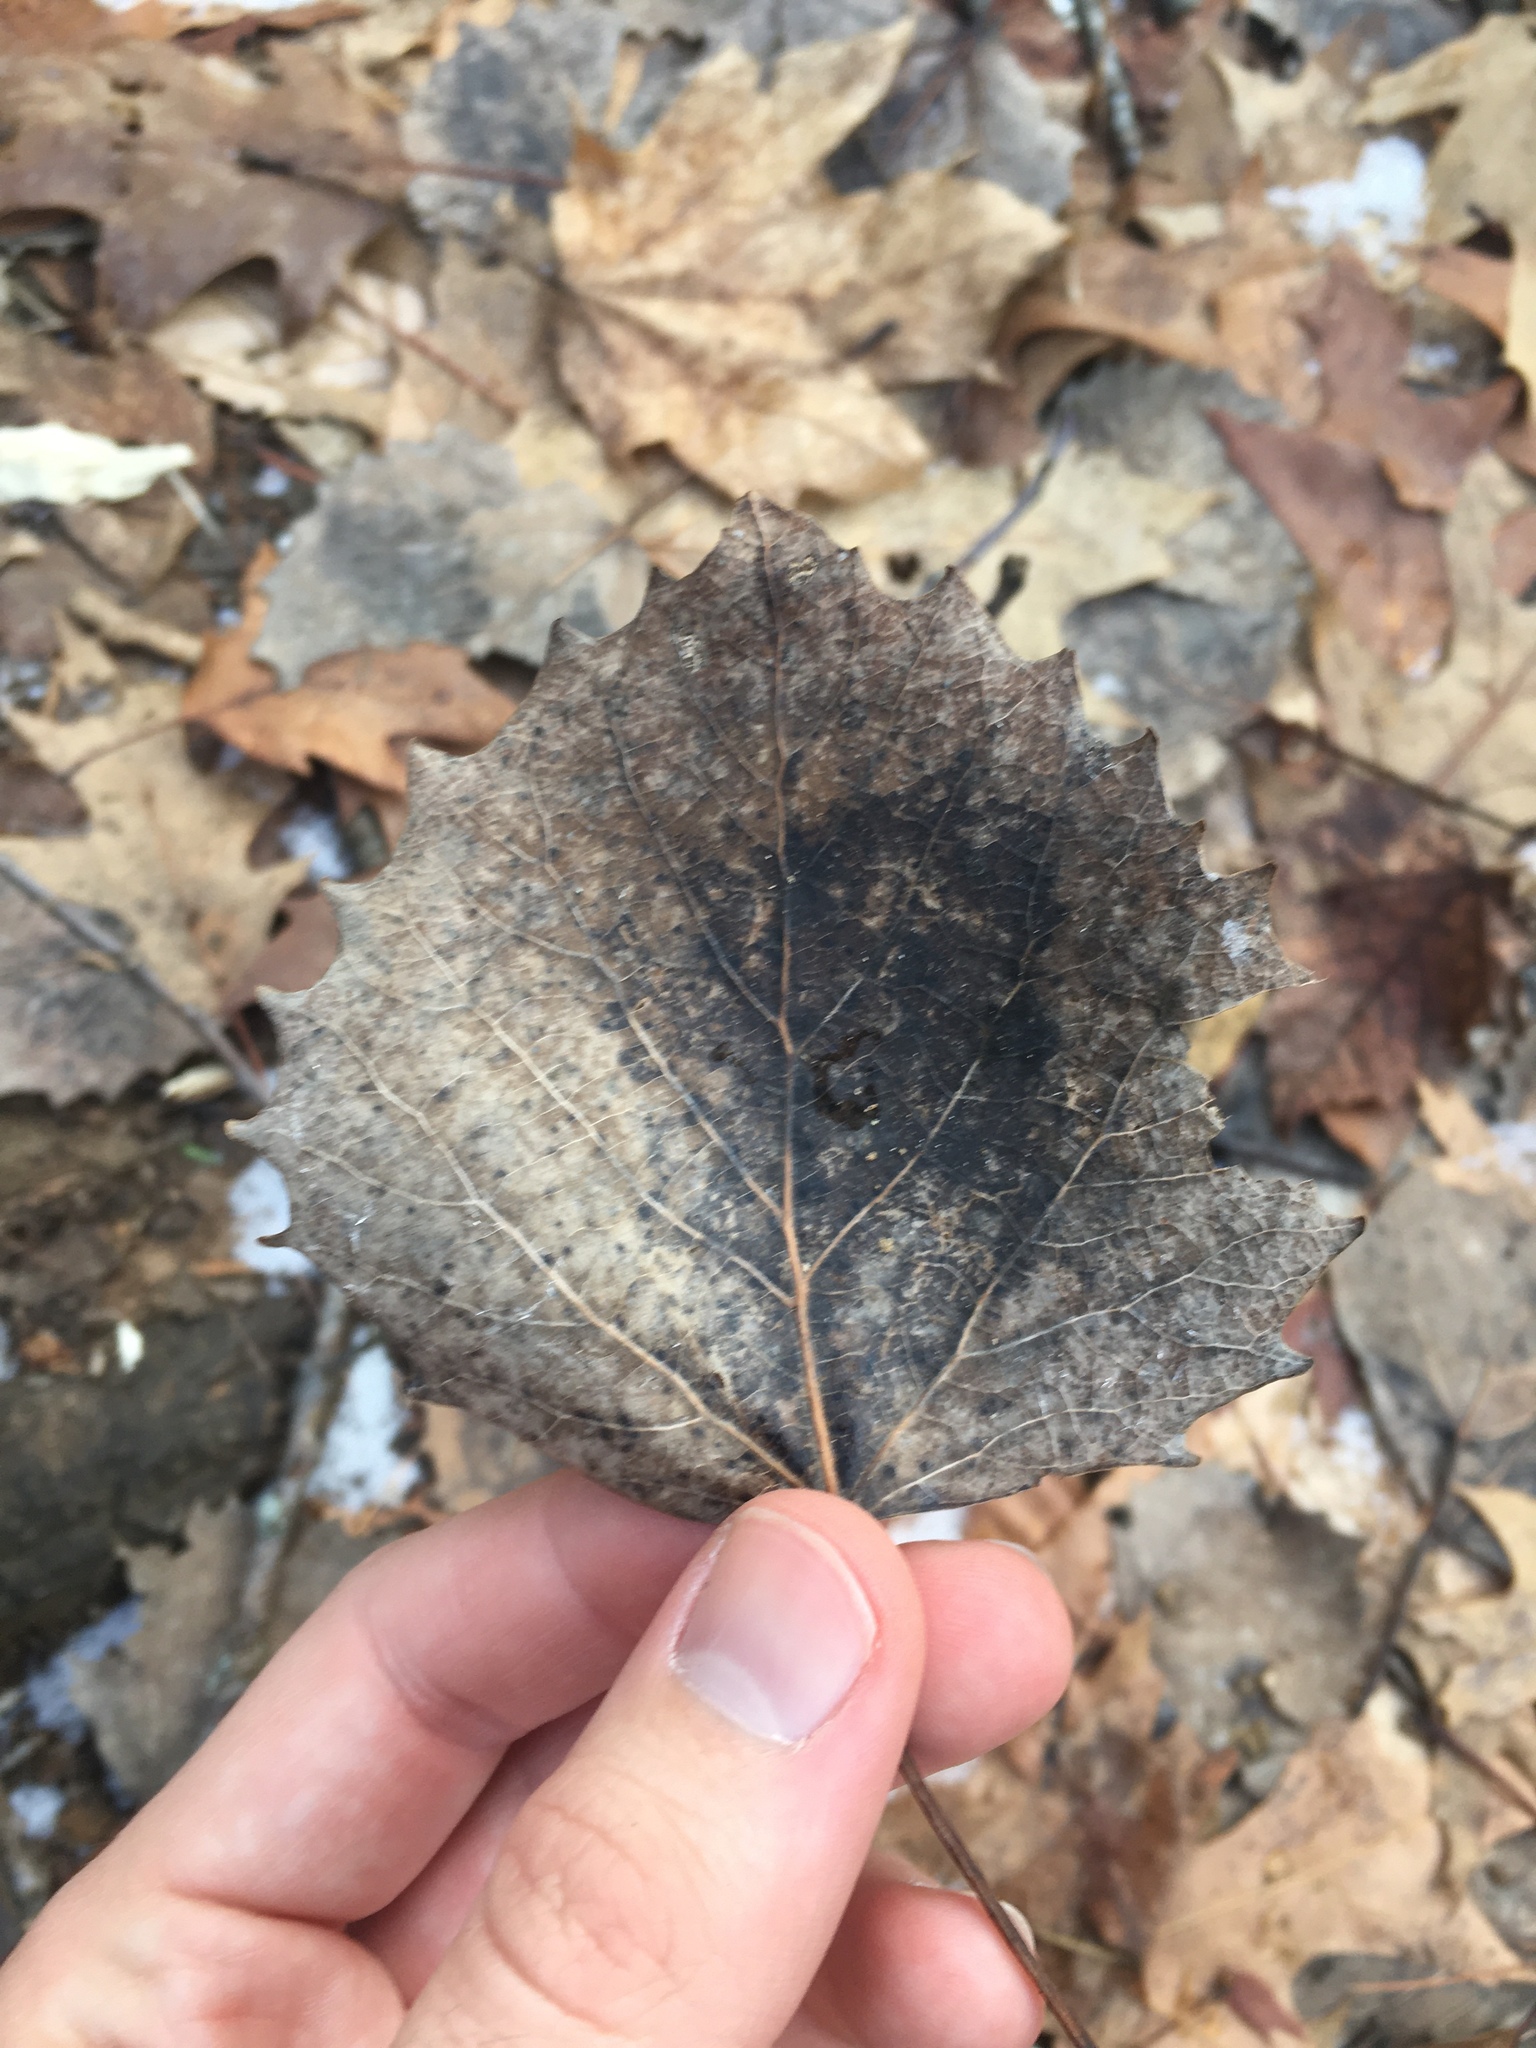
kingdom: Plantae
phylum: Tracheophyta
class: Magnoliopsida
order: Malpighiales
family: Salicaceae
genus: Populus
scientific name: Populus grandidentata
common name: Bigtooth aspen
